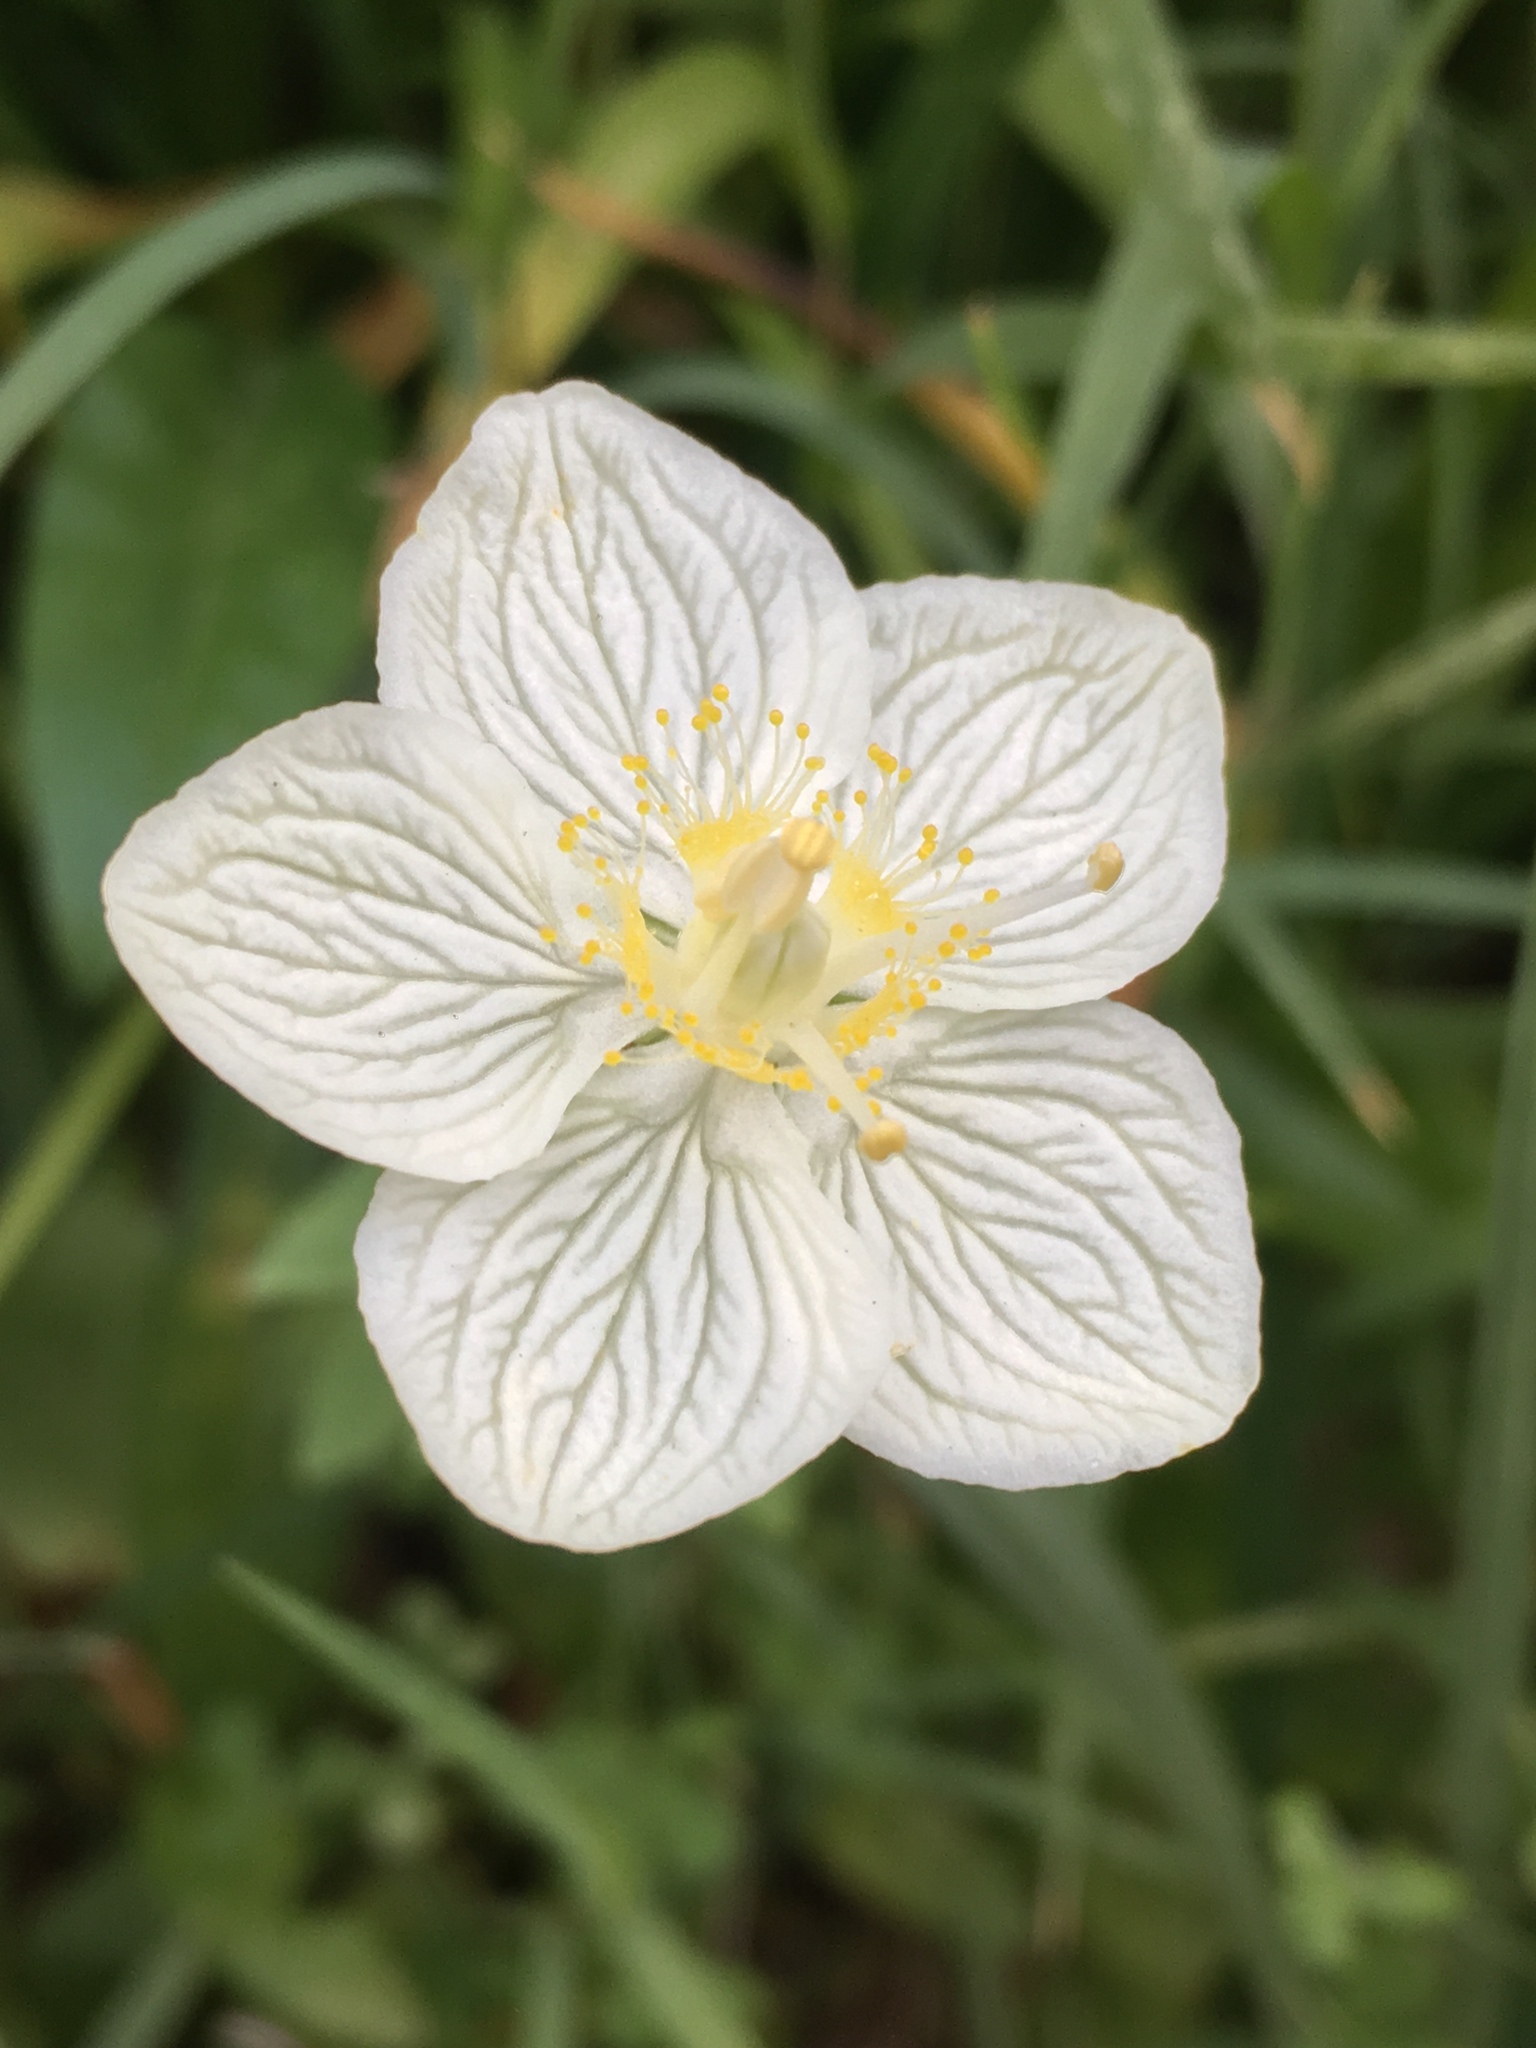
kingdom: Plantae
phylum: Tracheophyta
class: Magnoliopsida
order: Celastrales
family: Parnassiaceae
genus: Parnassia
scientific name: Parnassia palustris
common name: Grass-of-parnassus
